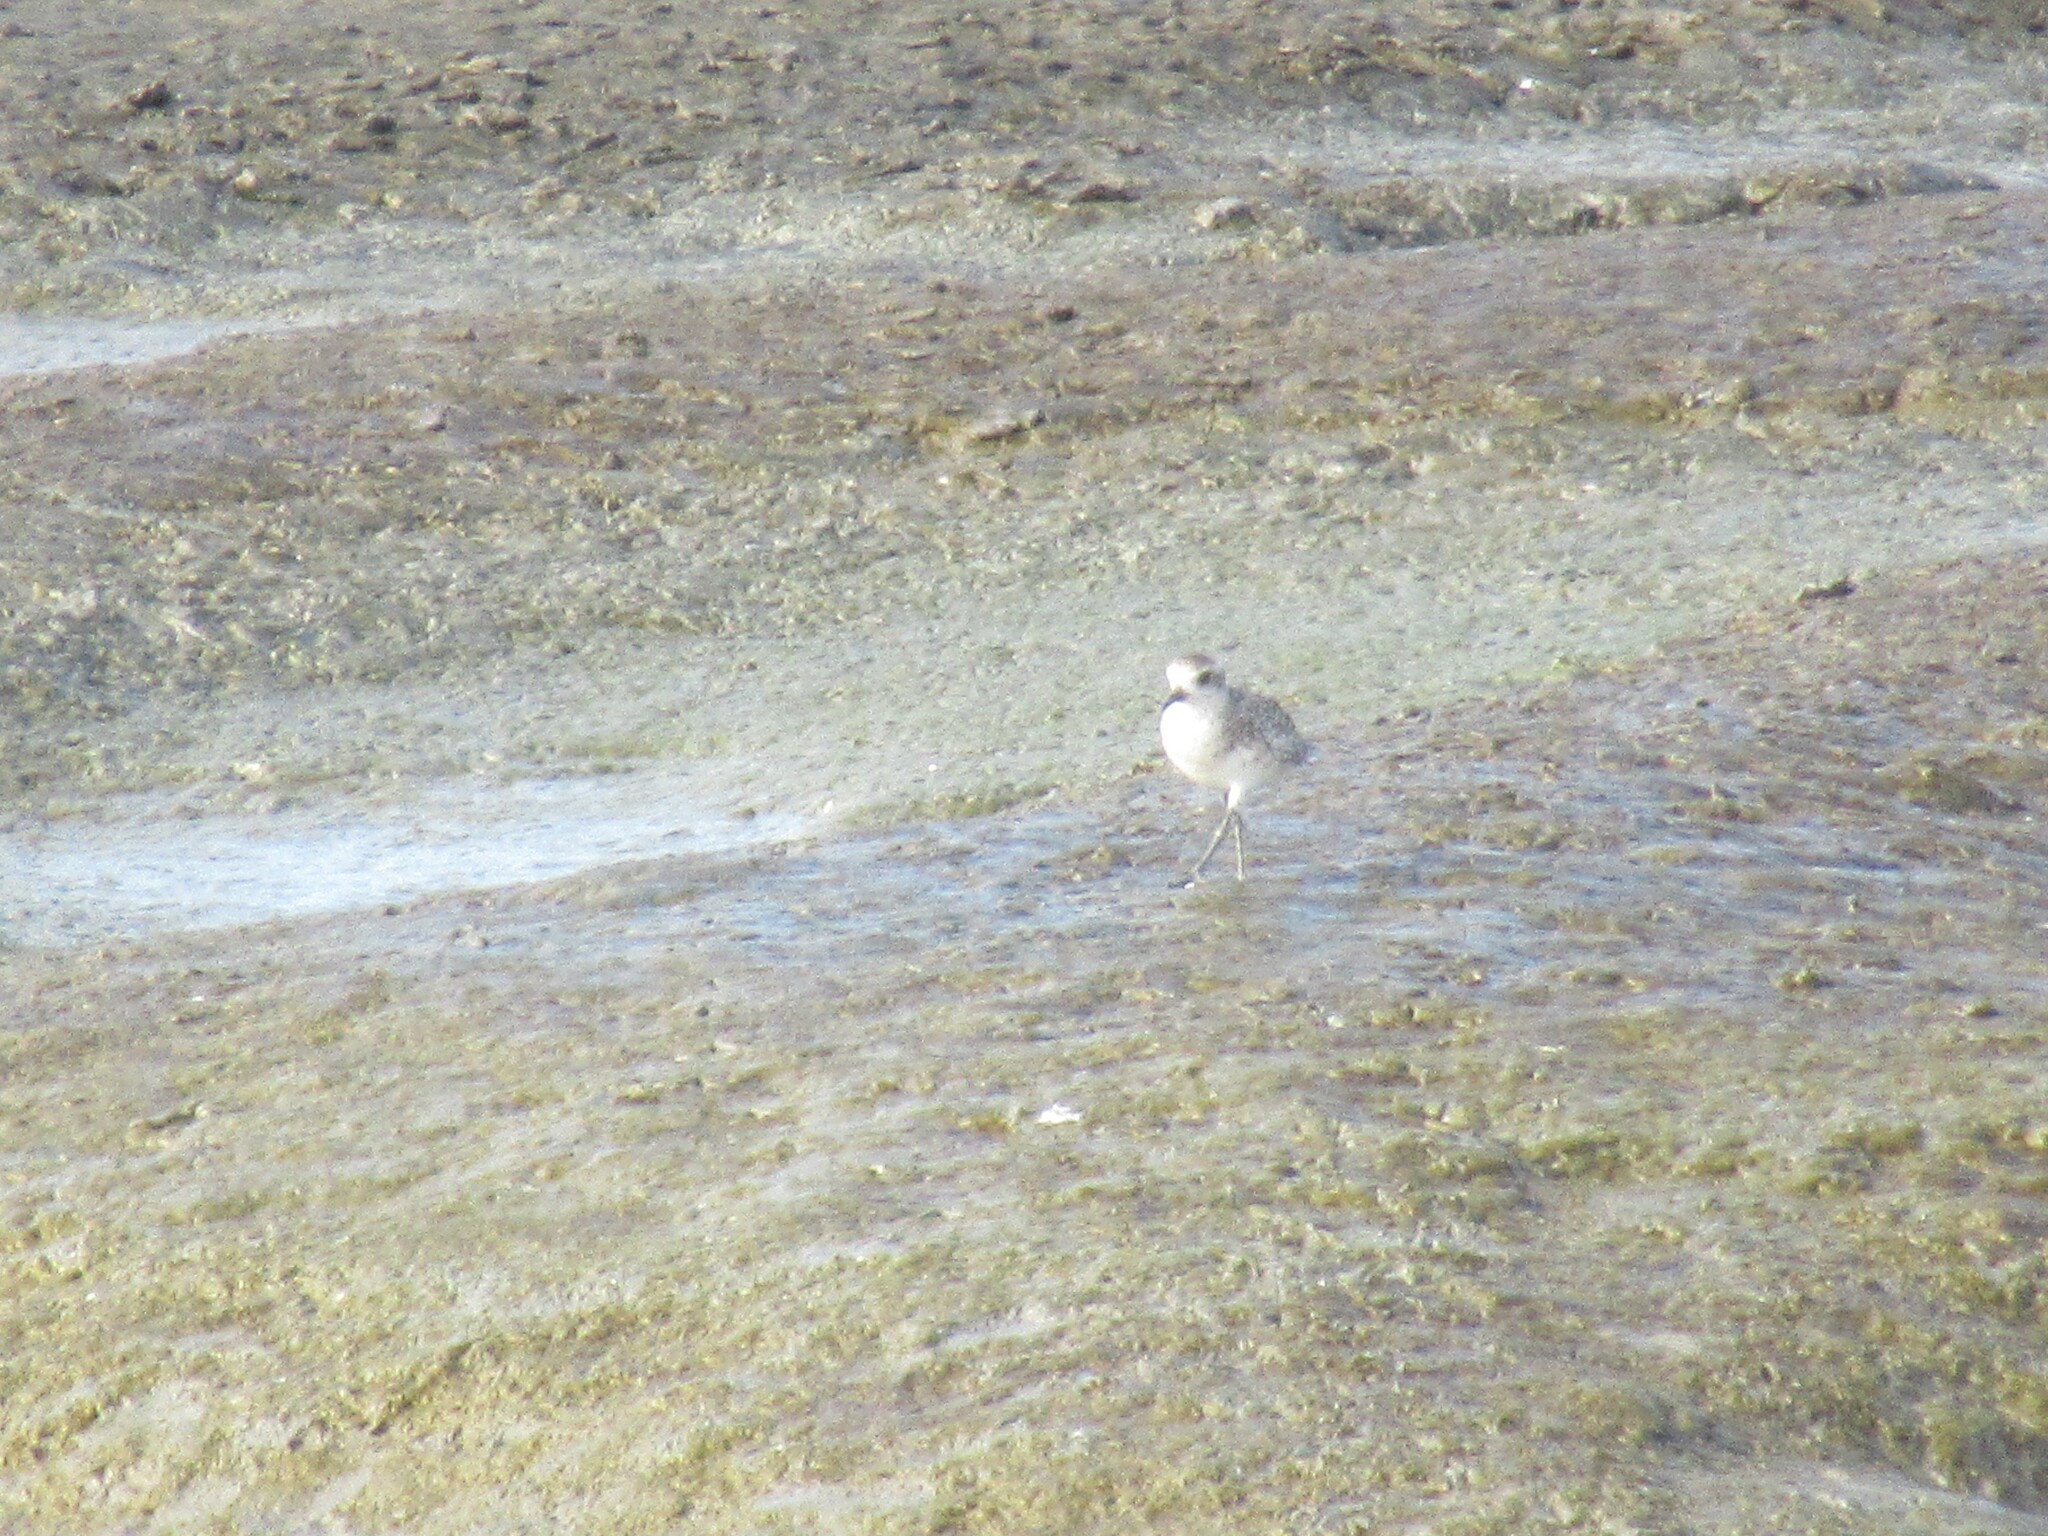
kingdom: Animalia
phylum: Chordata
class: Aves
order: Charadriiformes
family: Charadriidae
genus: Pluvialis
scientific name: Pluvialis squatarola
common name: Grey plover
